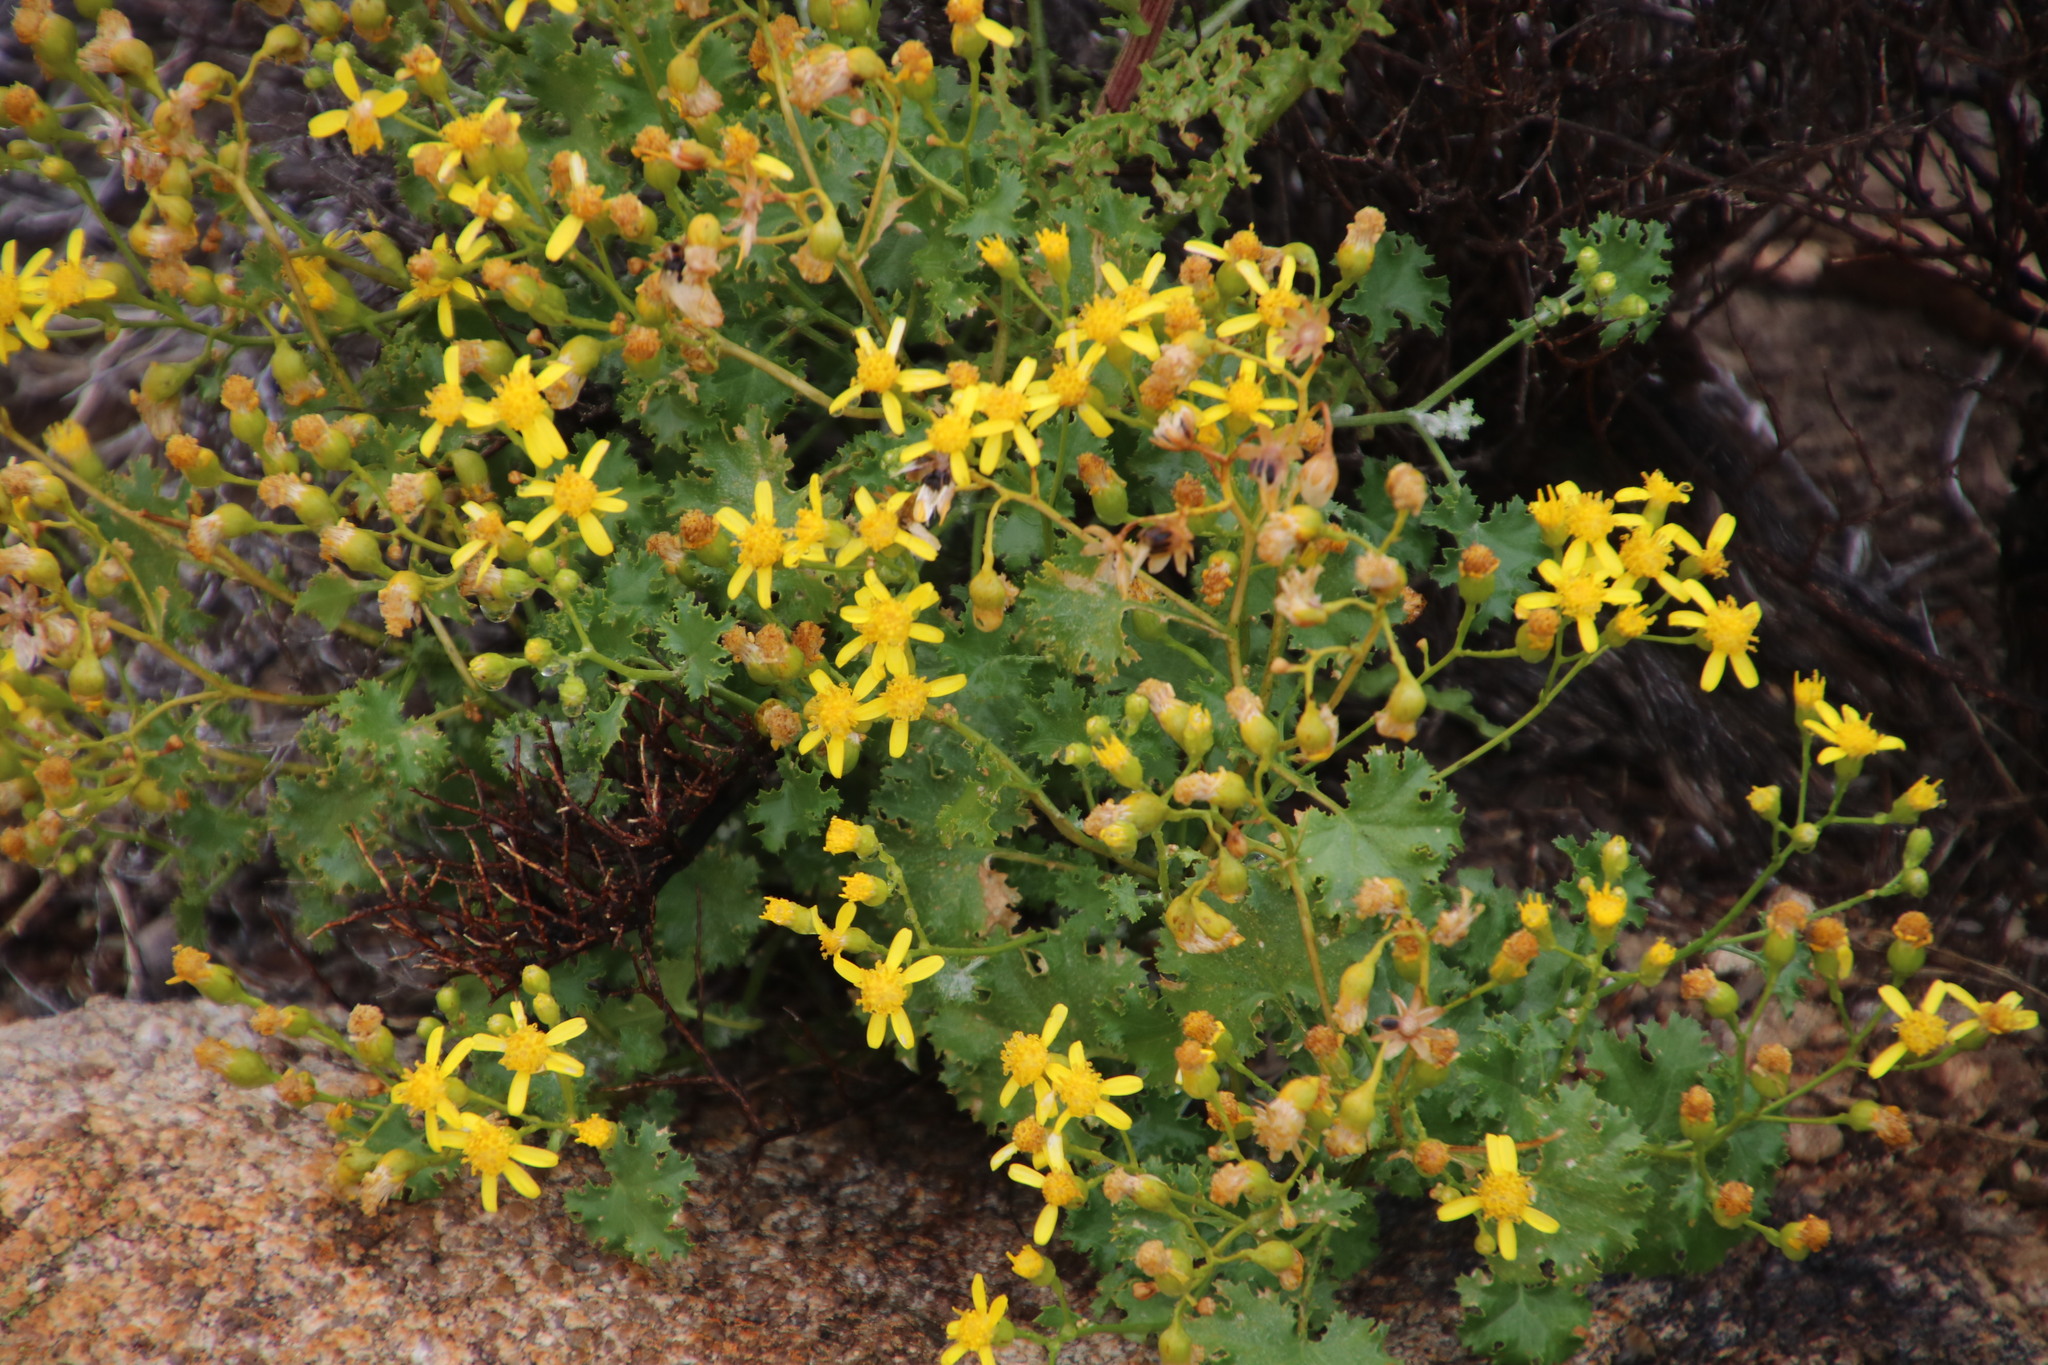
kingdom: Plantae
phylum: Tracheophyta
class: Magnoliopsida
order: Asterales
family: Asteraceae
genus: Cineraria
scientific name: Cineraria alchemilloides
